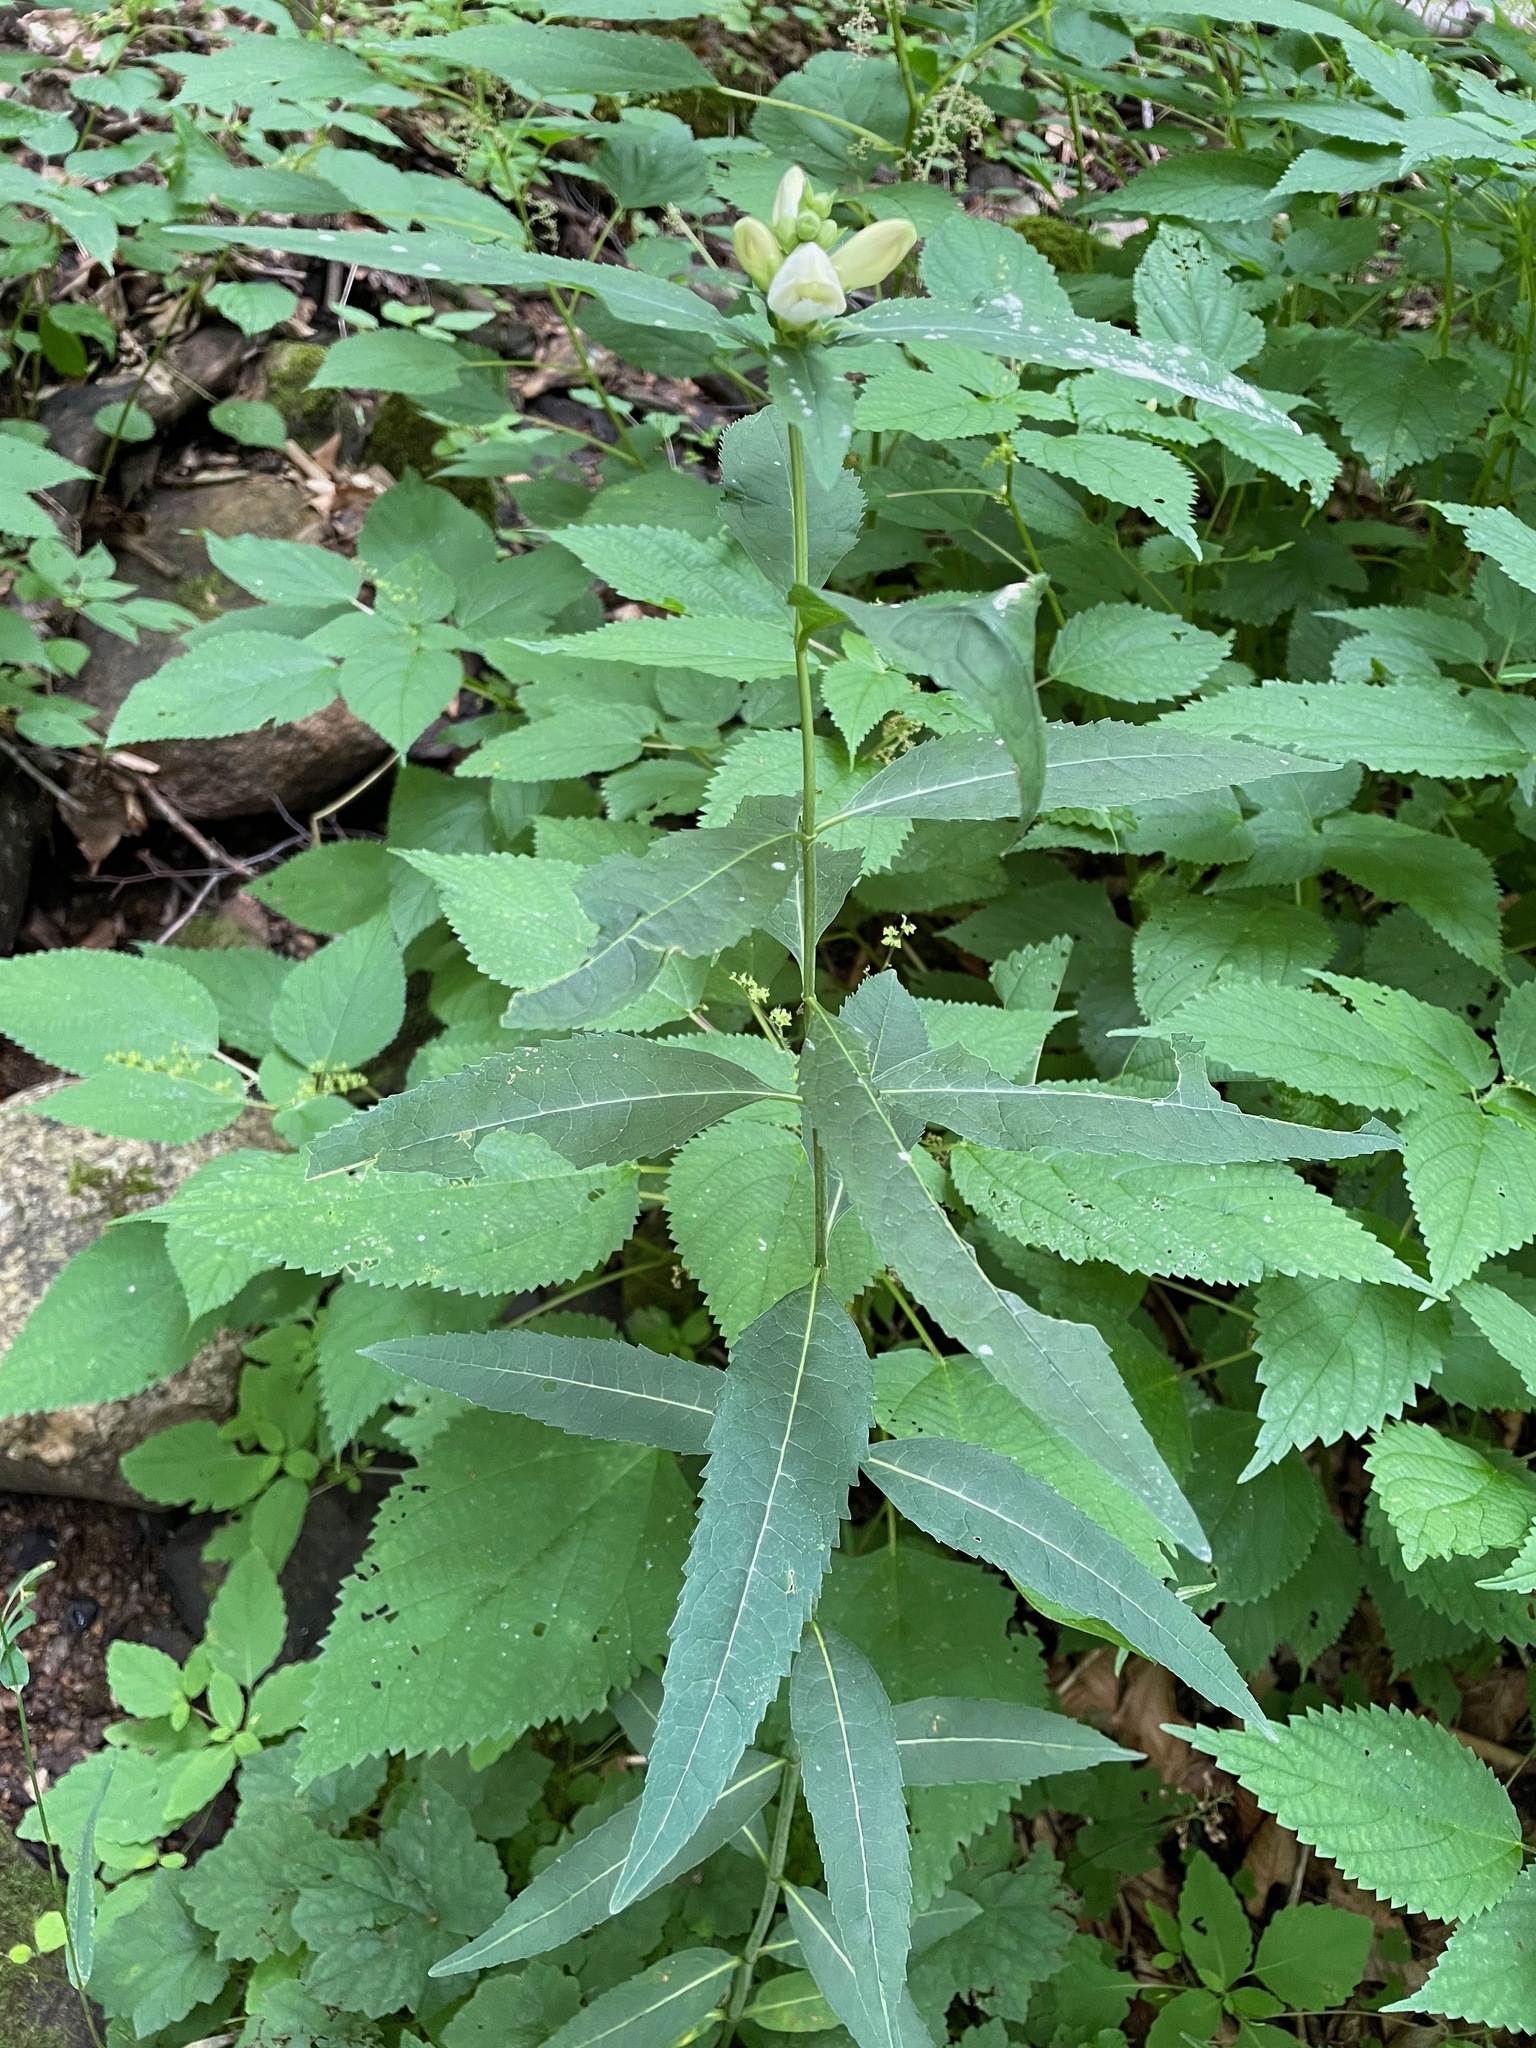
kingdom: Plantae
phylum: Tracheophyta
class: Magnoliopsida
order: Lamiales
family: Plantaginaceae
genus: Chelone
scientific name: Chelone glabra
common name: Snakehead
